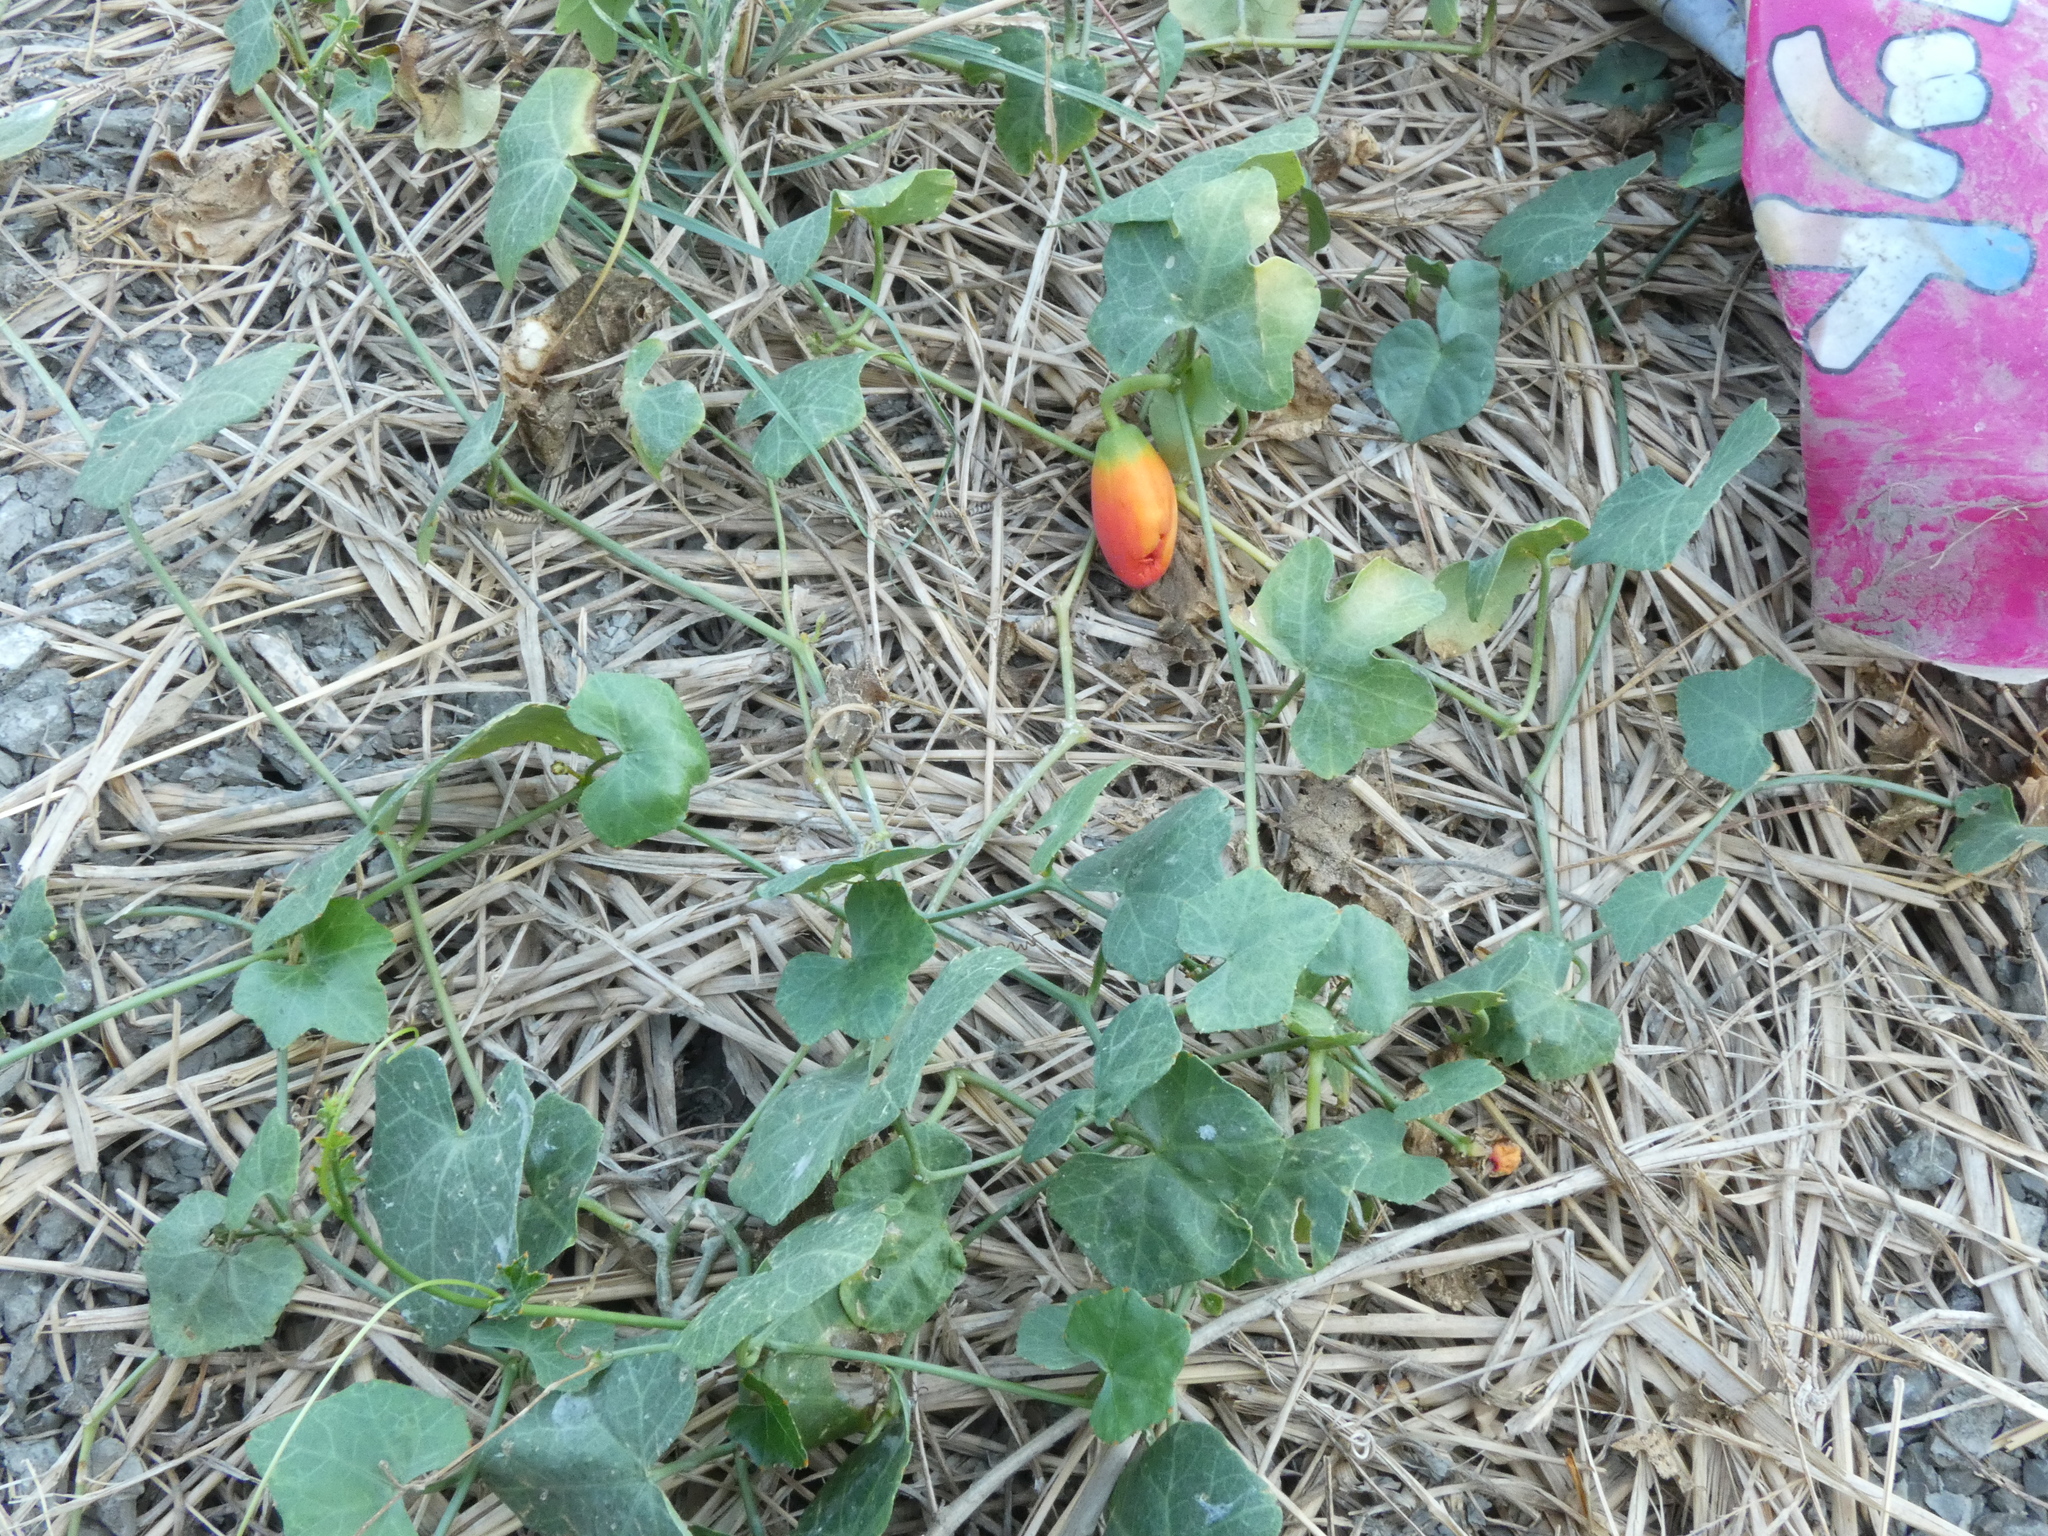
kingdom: Plantae
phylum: Tracheophyta
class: Magnoliopsida
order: Cucurbitales
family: Cucurbitaceae
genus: Coccinia
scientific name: Coccinia grandis
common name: Ivy gourd
